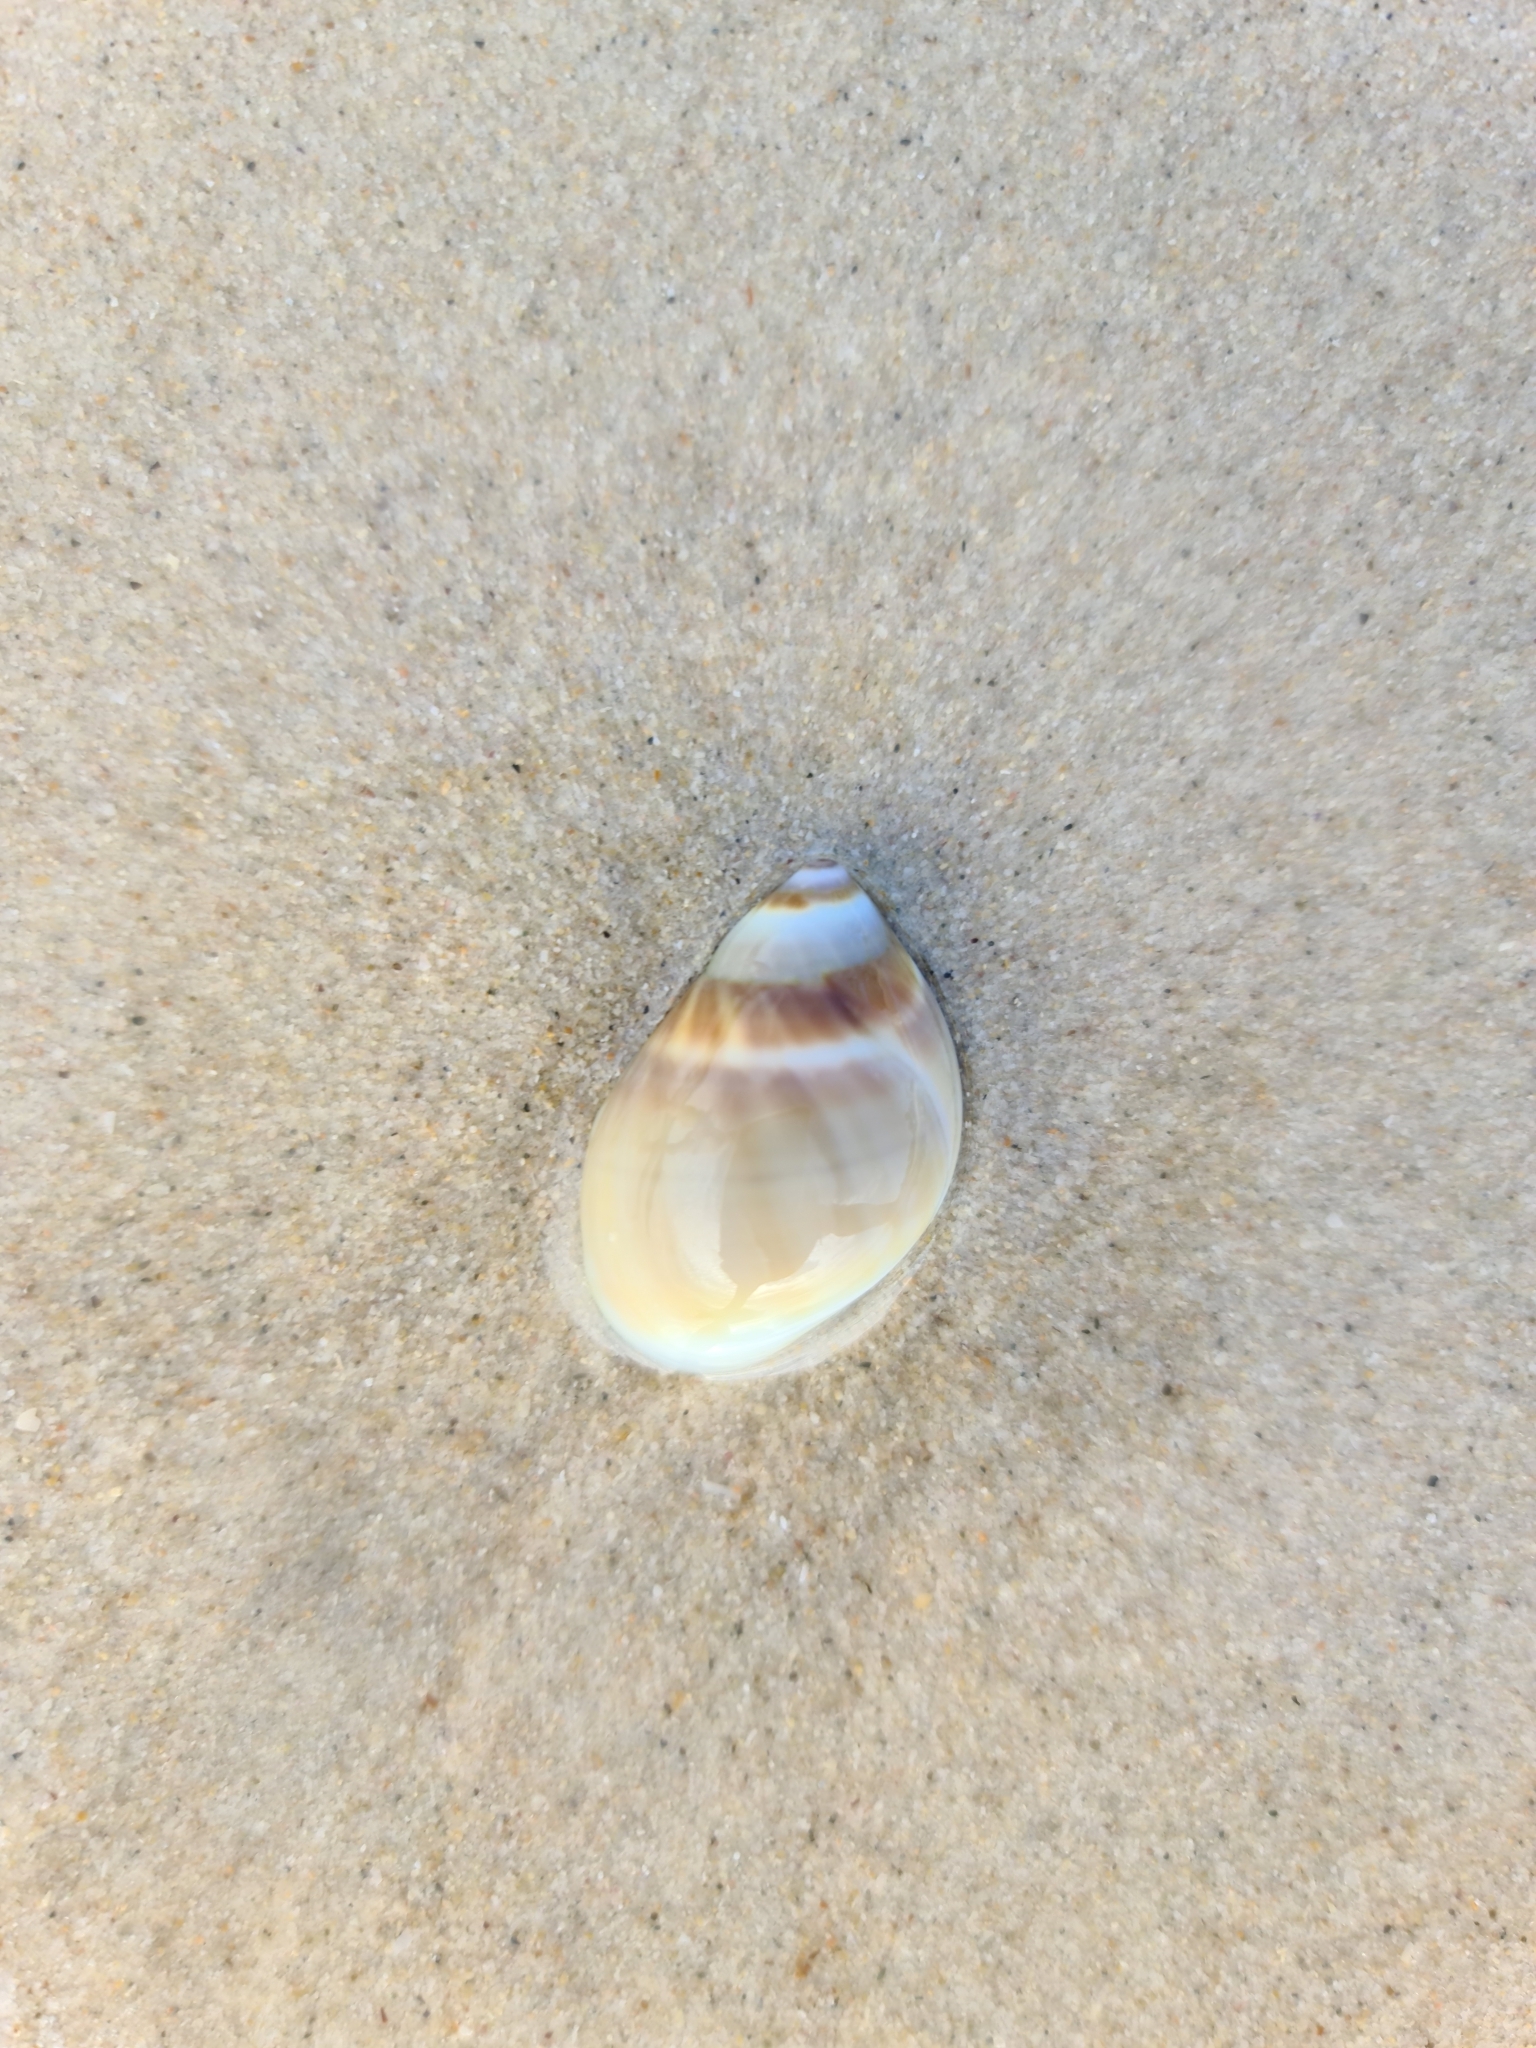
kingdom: Animalia
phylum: Mollusca
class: Gastropoda
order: Littorinimorpha
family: Naticidae
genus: Conuber
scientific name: Conuber conicum
